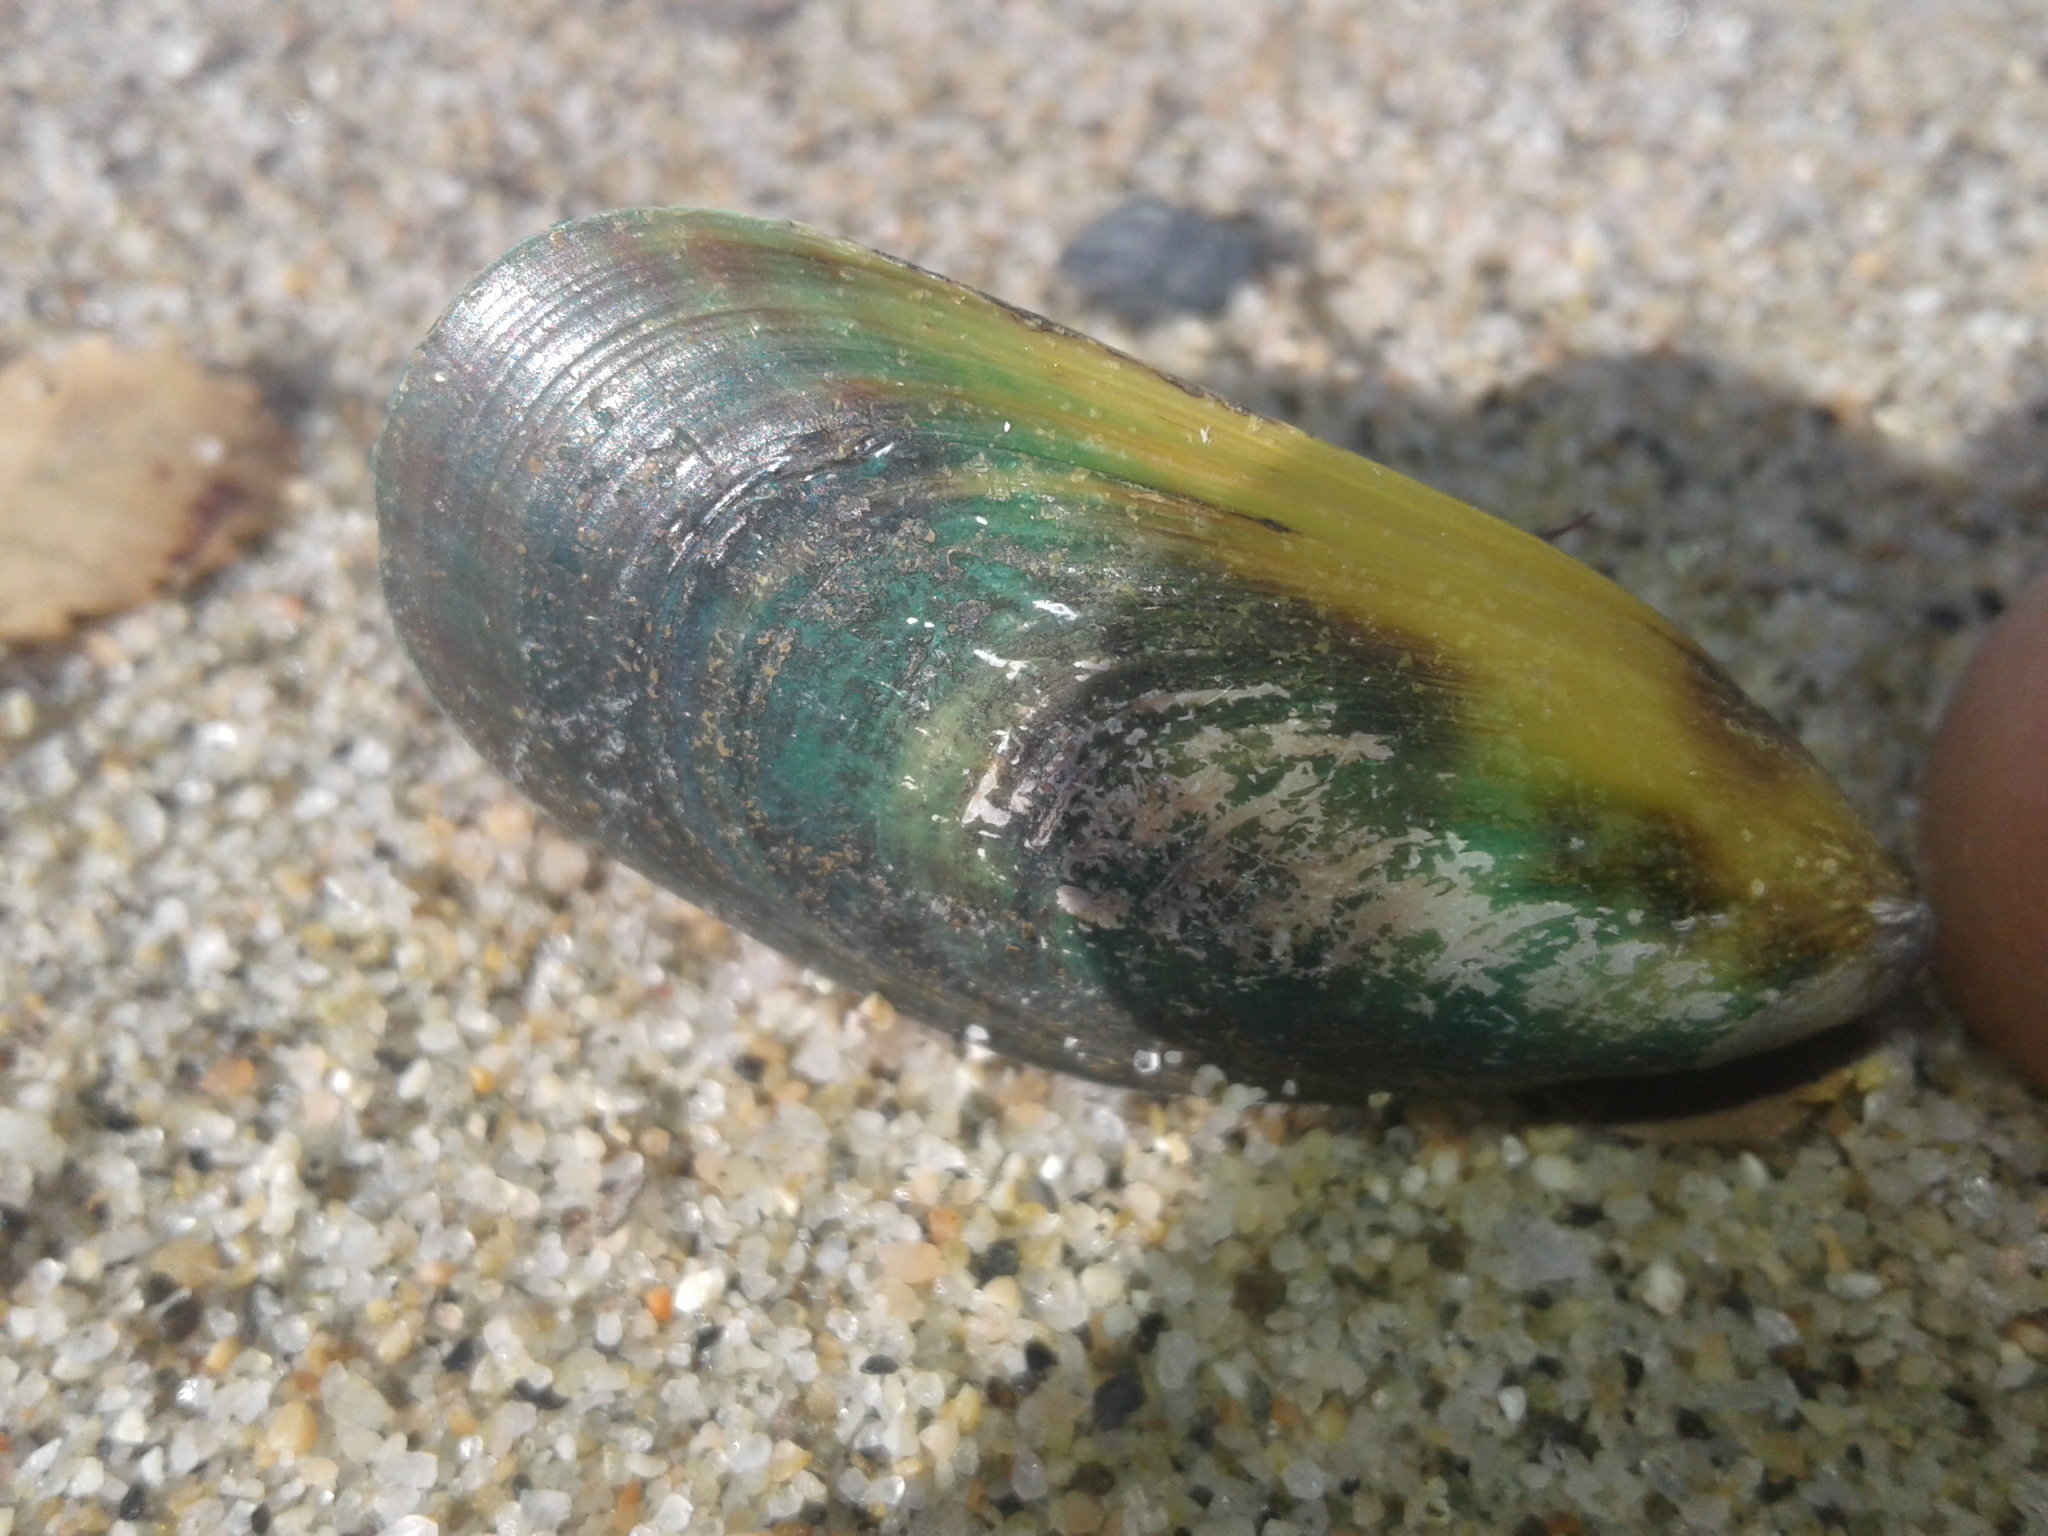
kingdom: Animalia
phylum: Mollusca
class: Bivalvia
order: Mytilida
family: Mytilidae
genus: Perna
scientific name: Perna canaliculus
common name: New zealand greenshelltm
